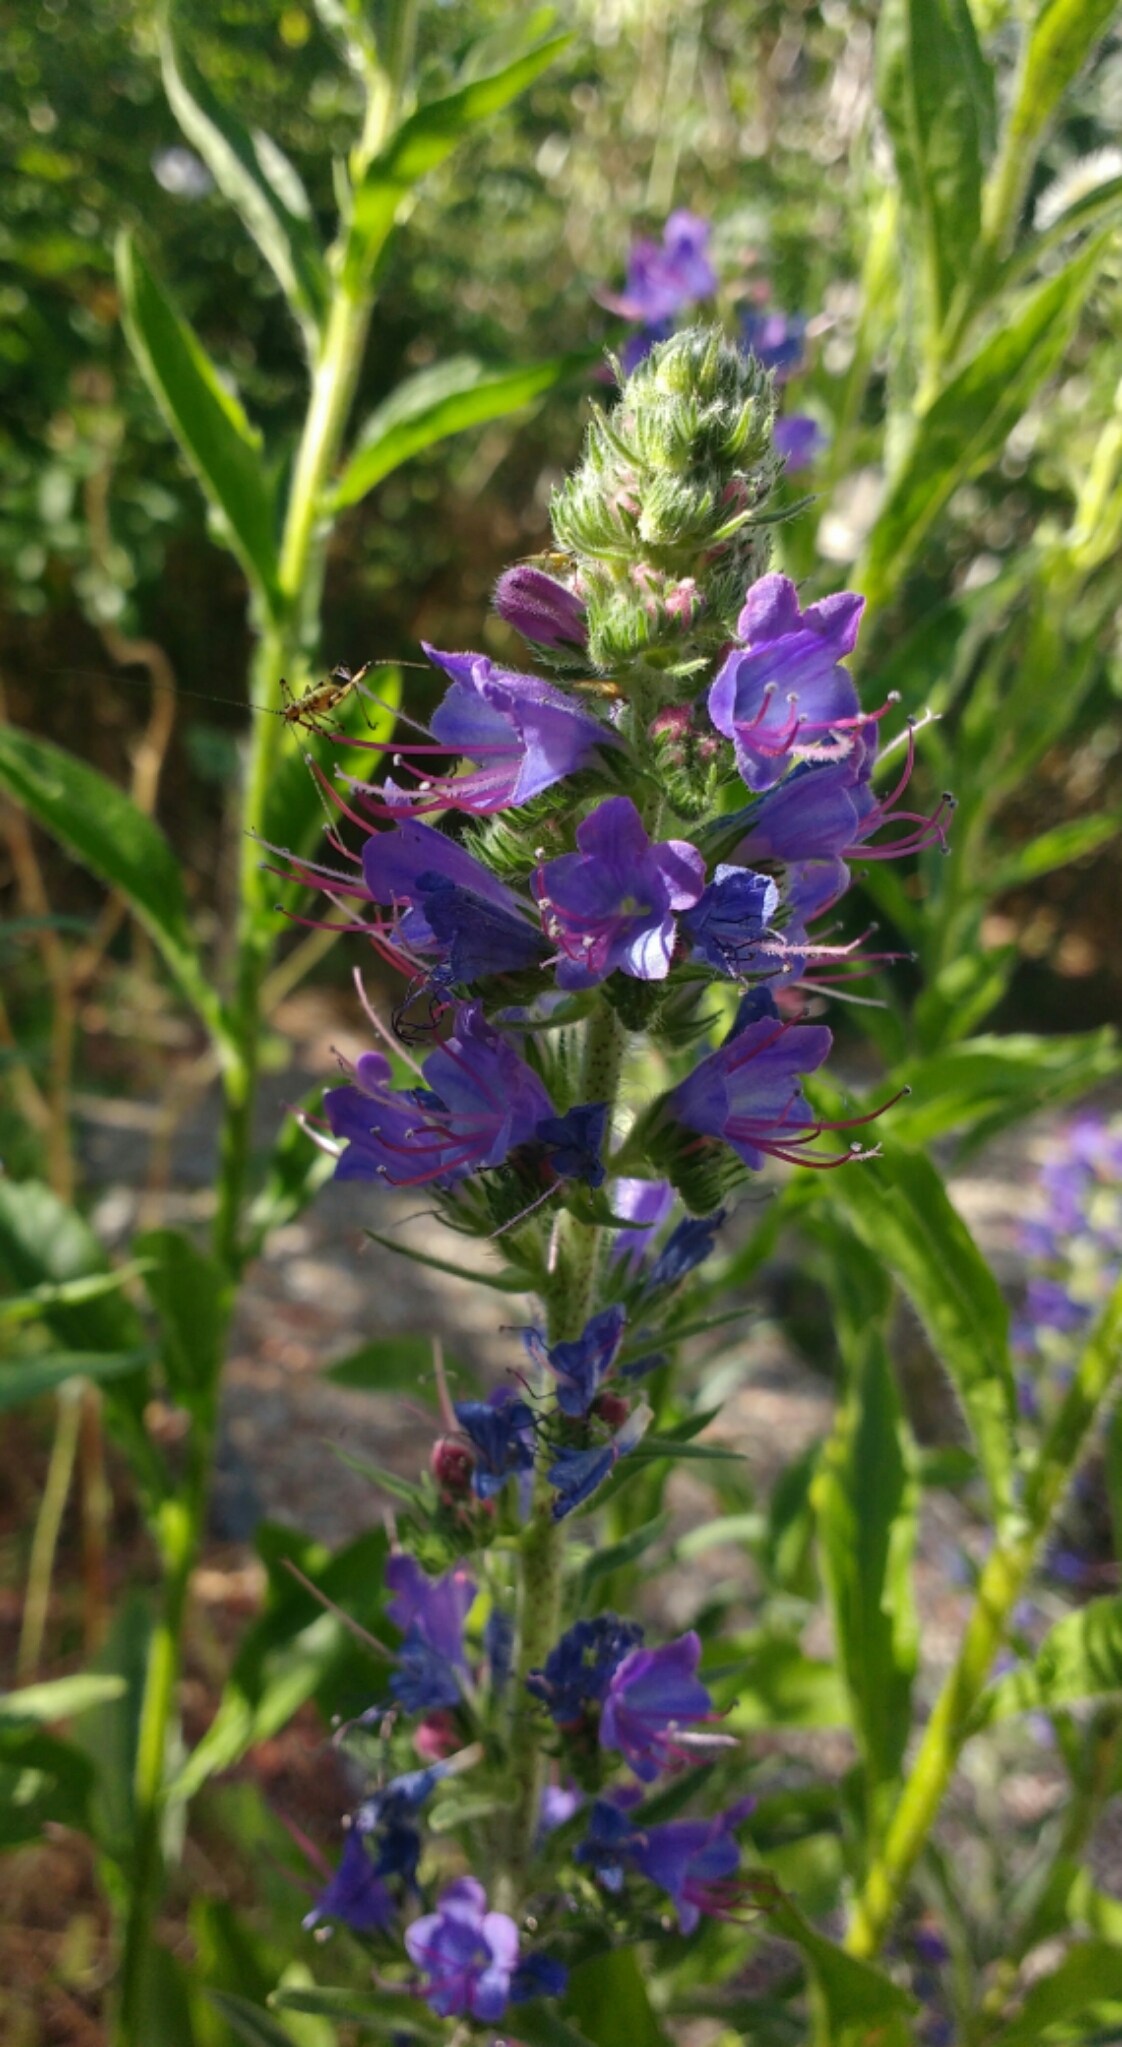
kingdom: Plantae
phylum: Tracheophyta
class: Magnoliopsida
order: Boraginales
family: Boraginaceae
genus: Echium
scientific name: Echium vulgare
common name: Common viper's bugloss
